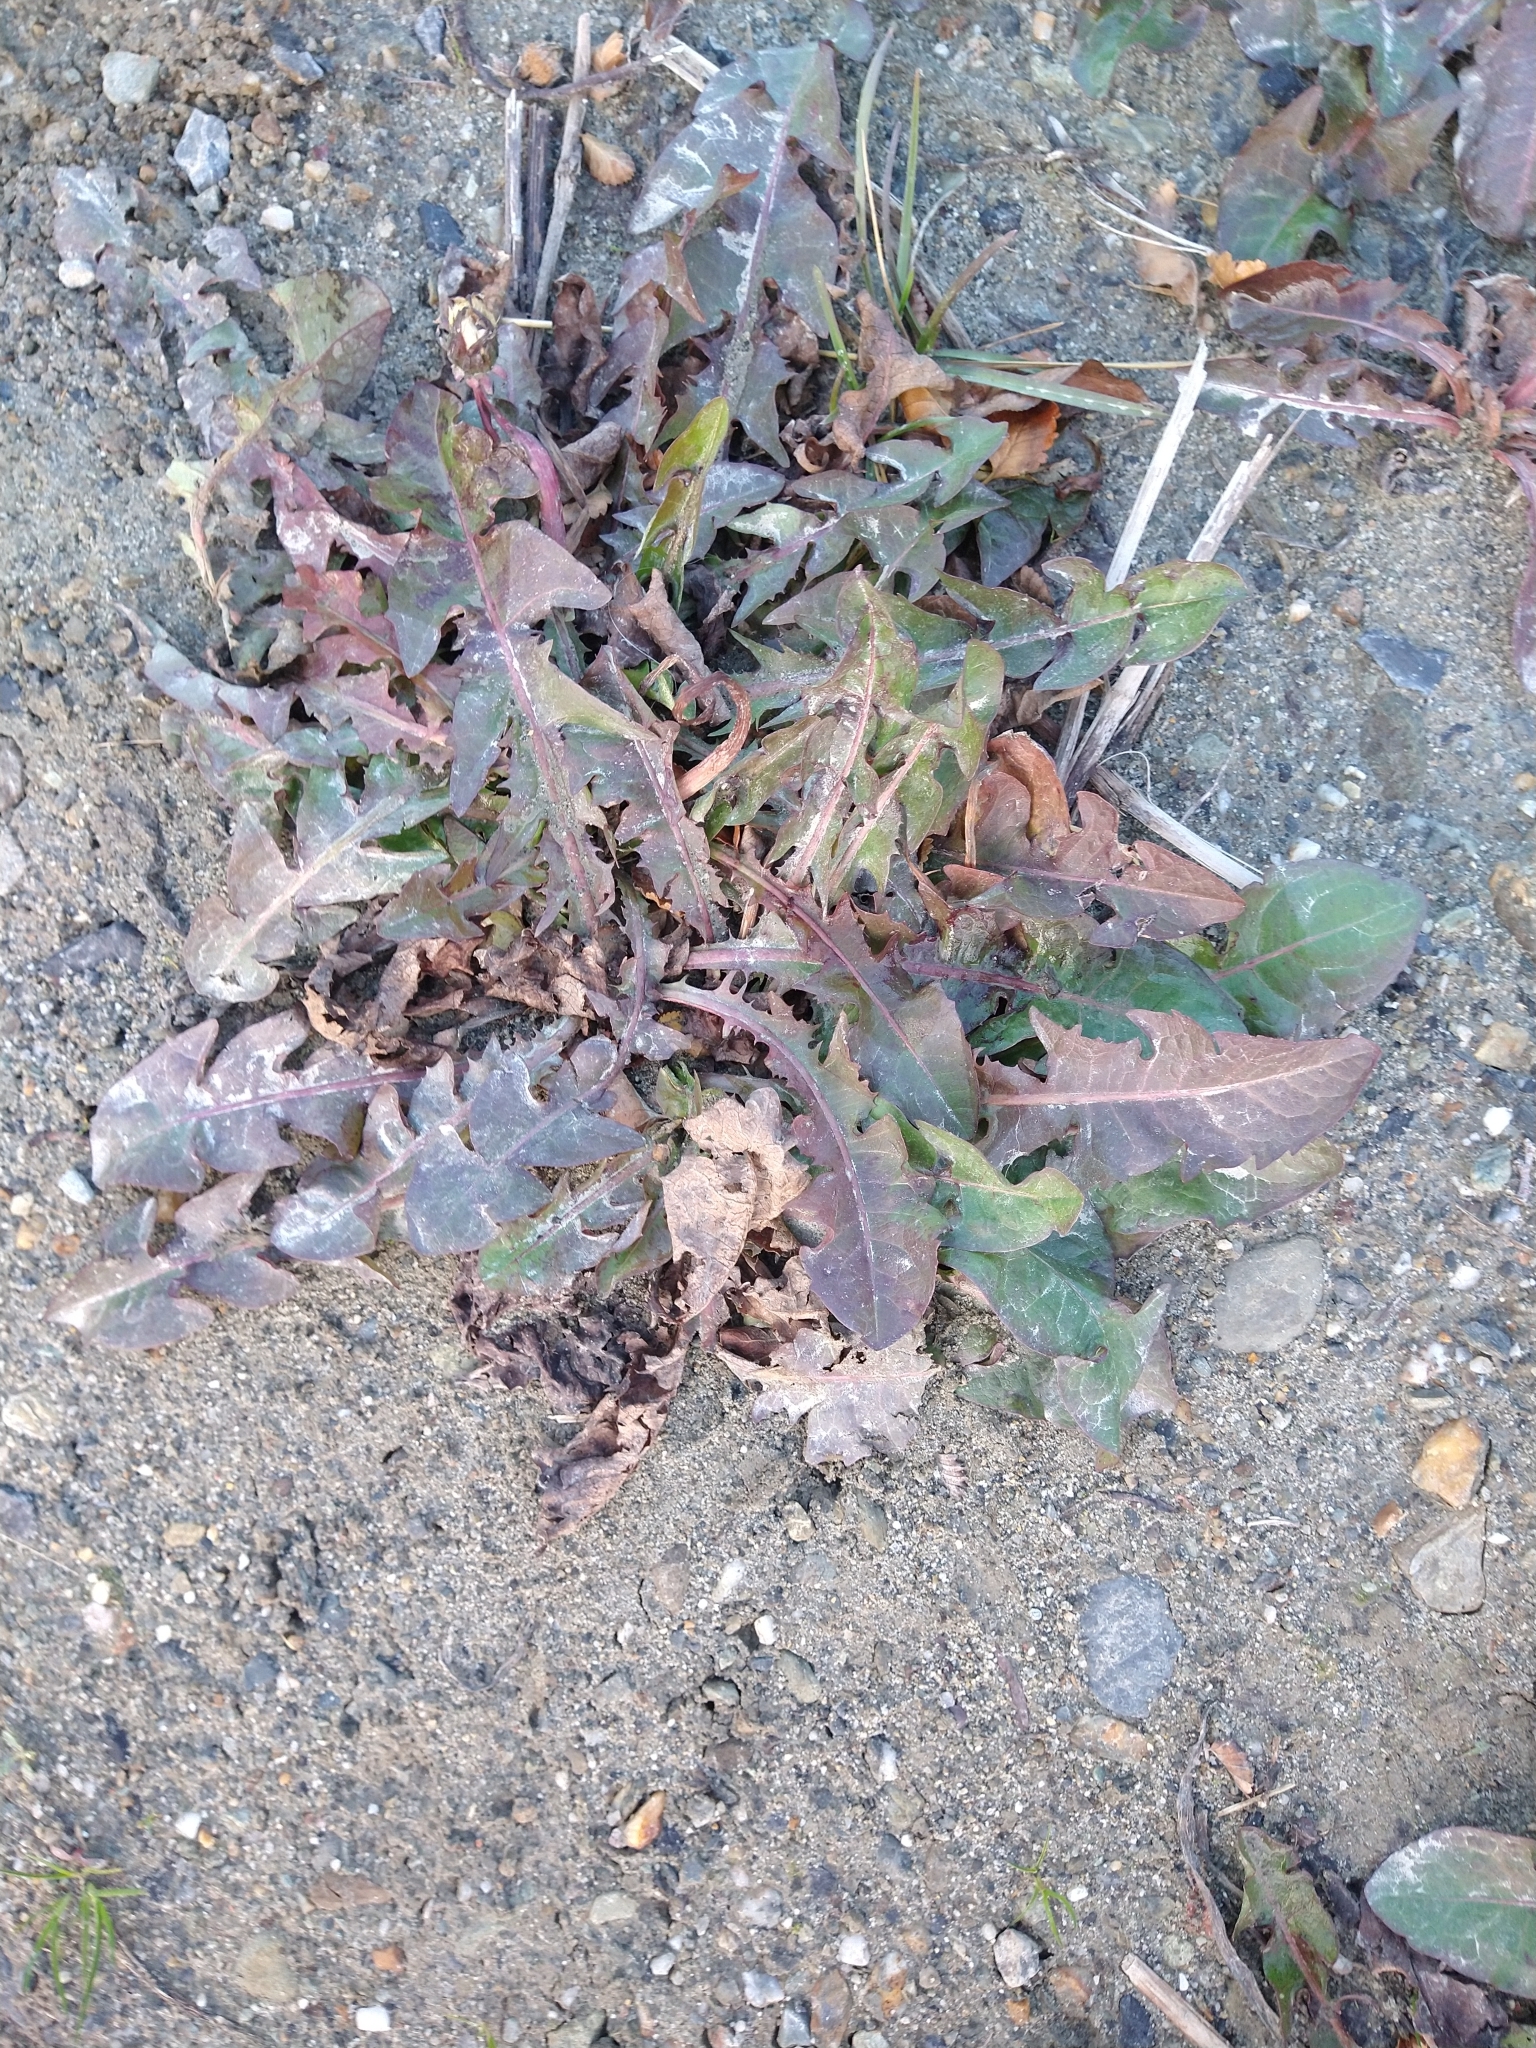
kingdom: Plantae
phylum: Tracheophyta
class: Magnoliopsida
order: Asterales
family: Asteraceae
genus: Taraxacum
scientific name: Taraxacum officinale
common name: Common dandelion
